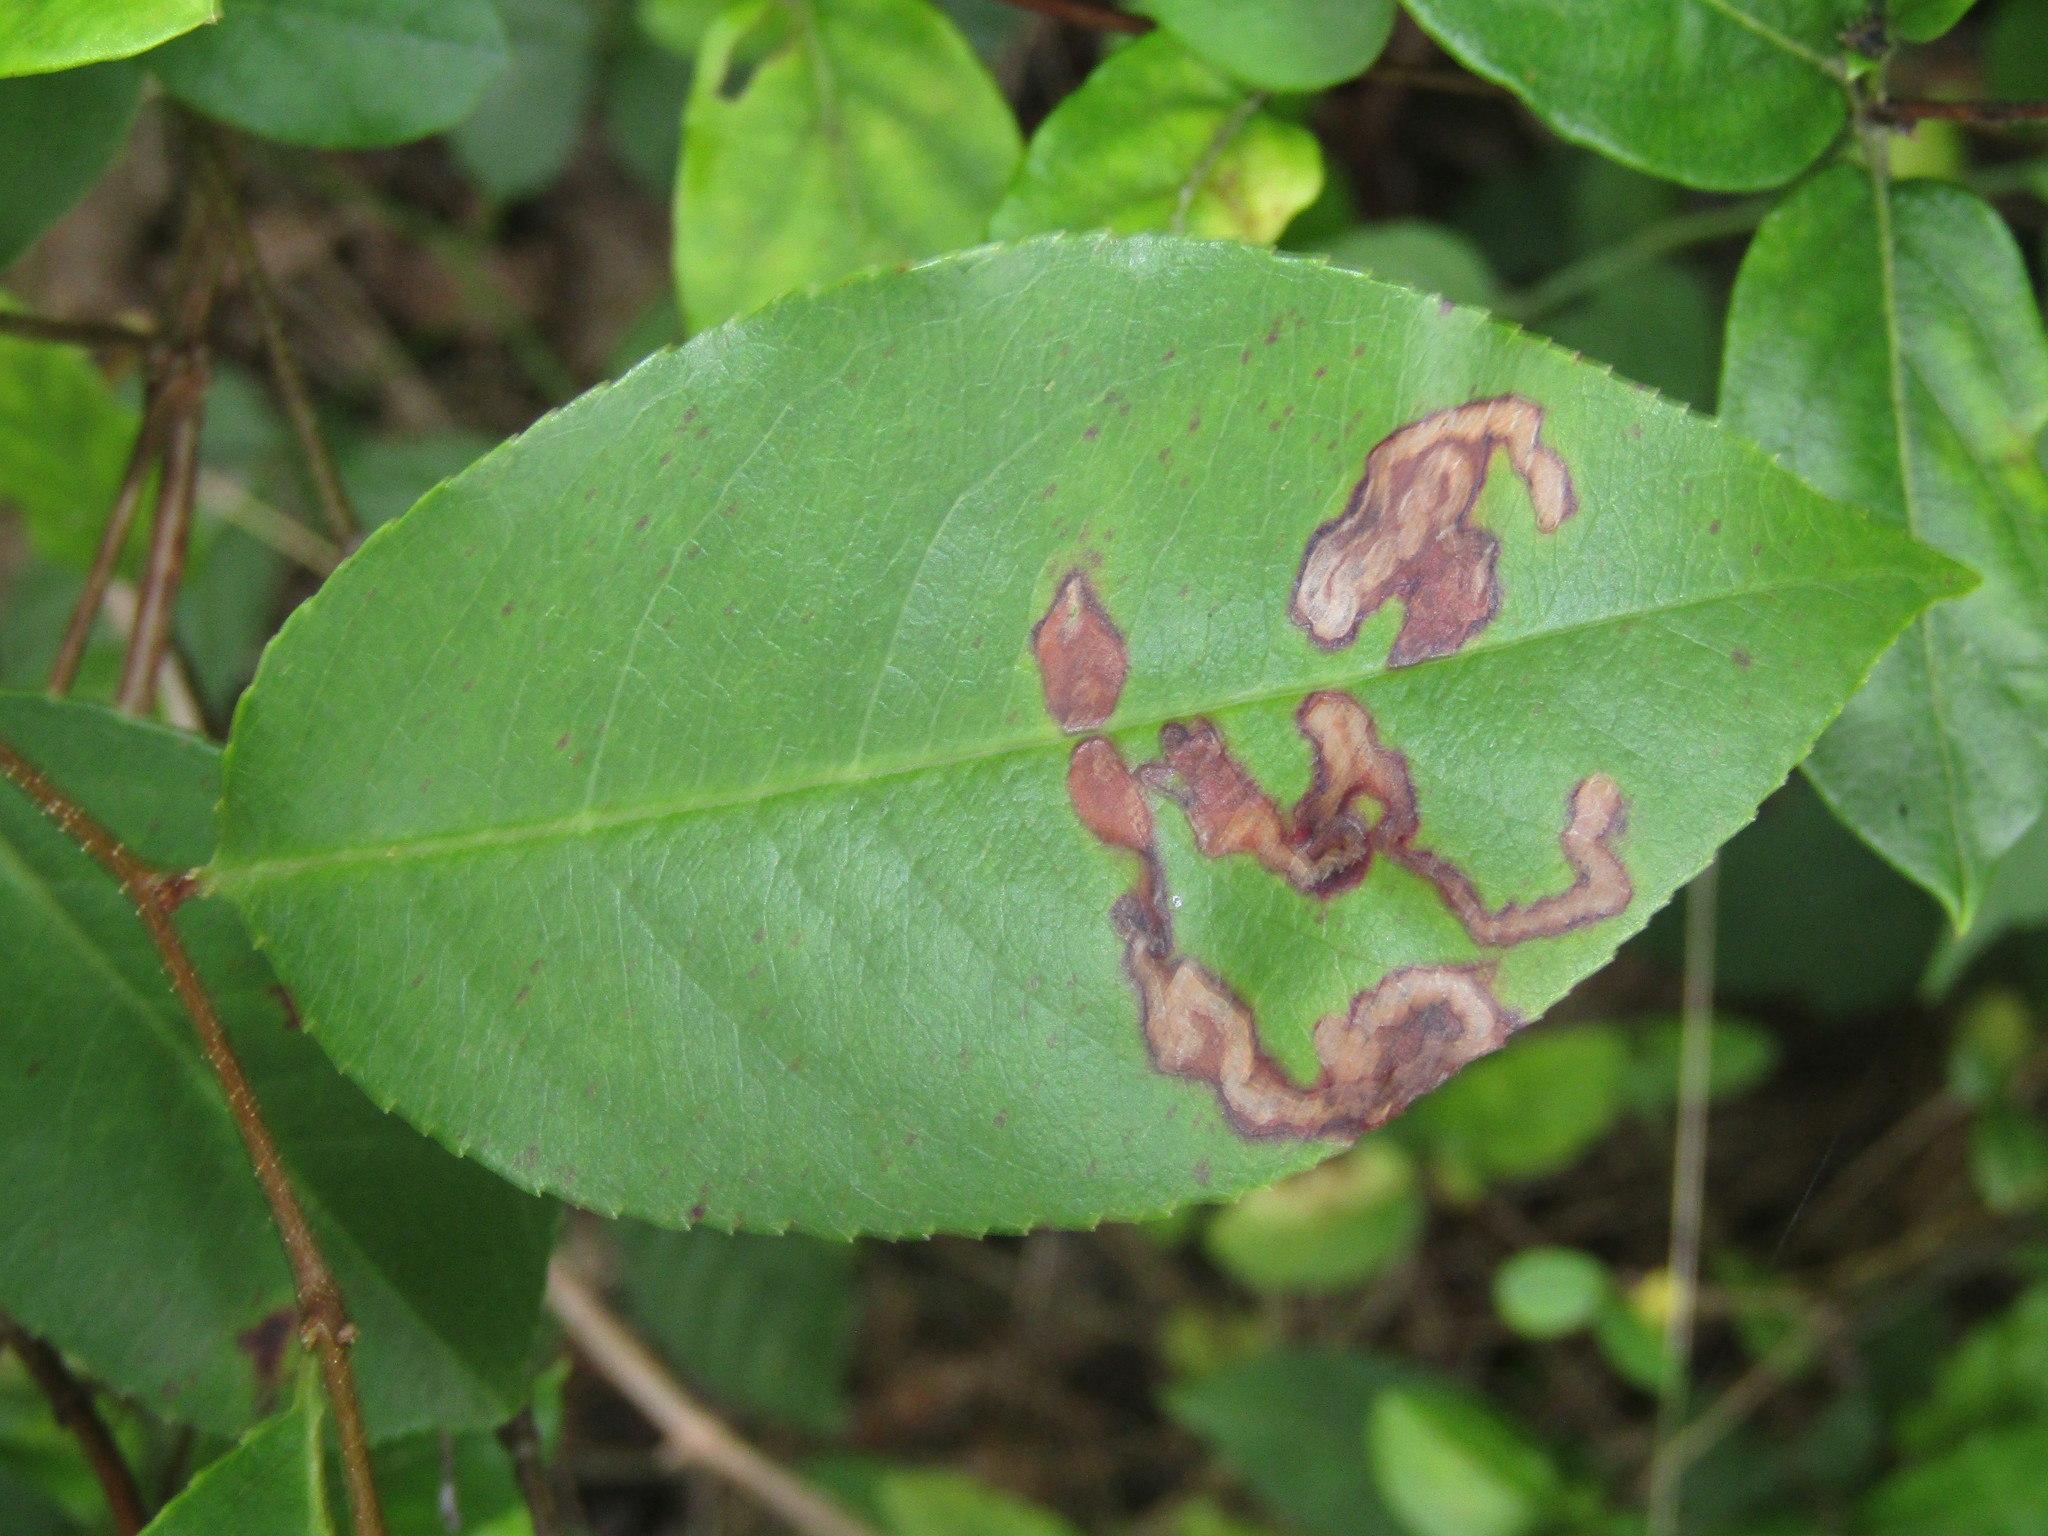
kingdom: Animalia
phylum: Arthropoda
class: Insecta
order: Lepidoptera
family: Nepticulidae
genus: Stigmella
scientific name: Stigmella prunifoliella
